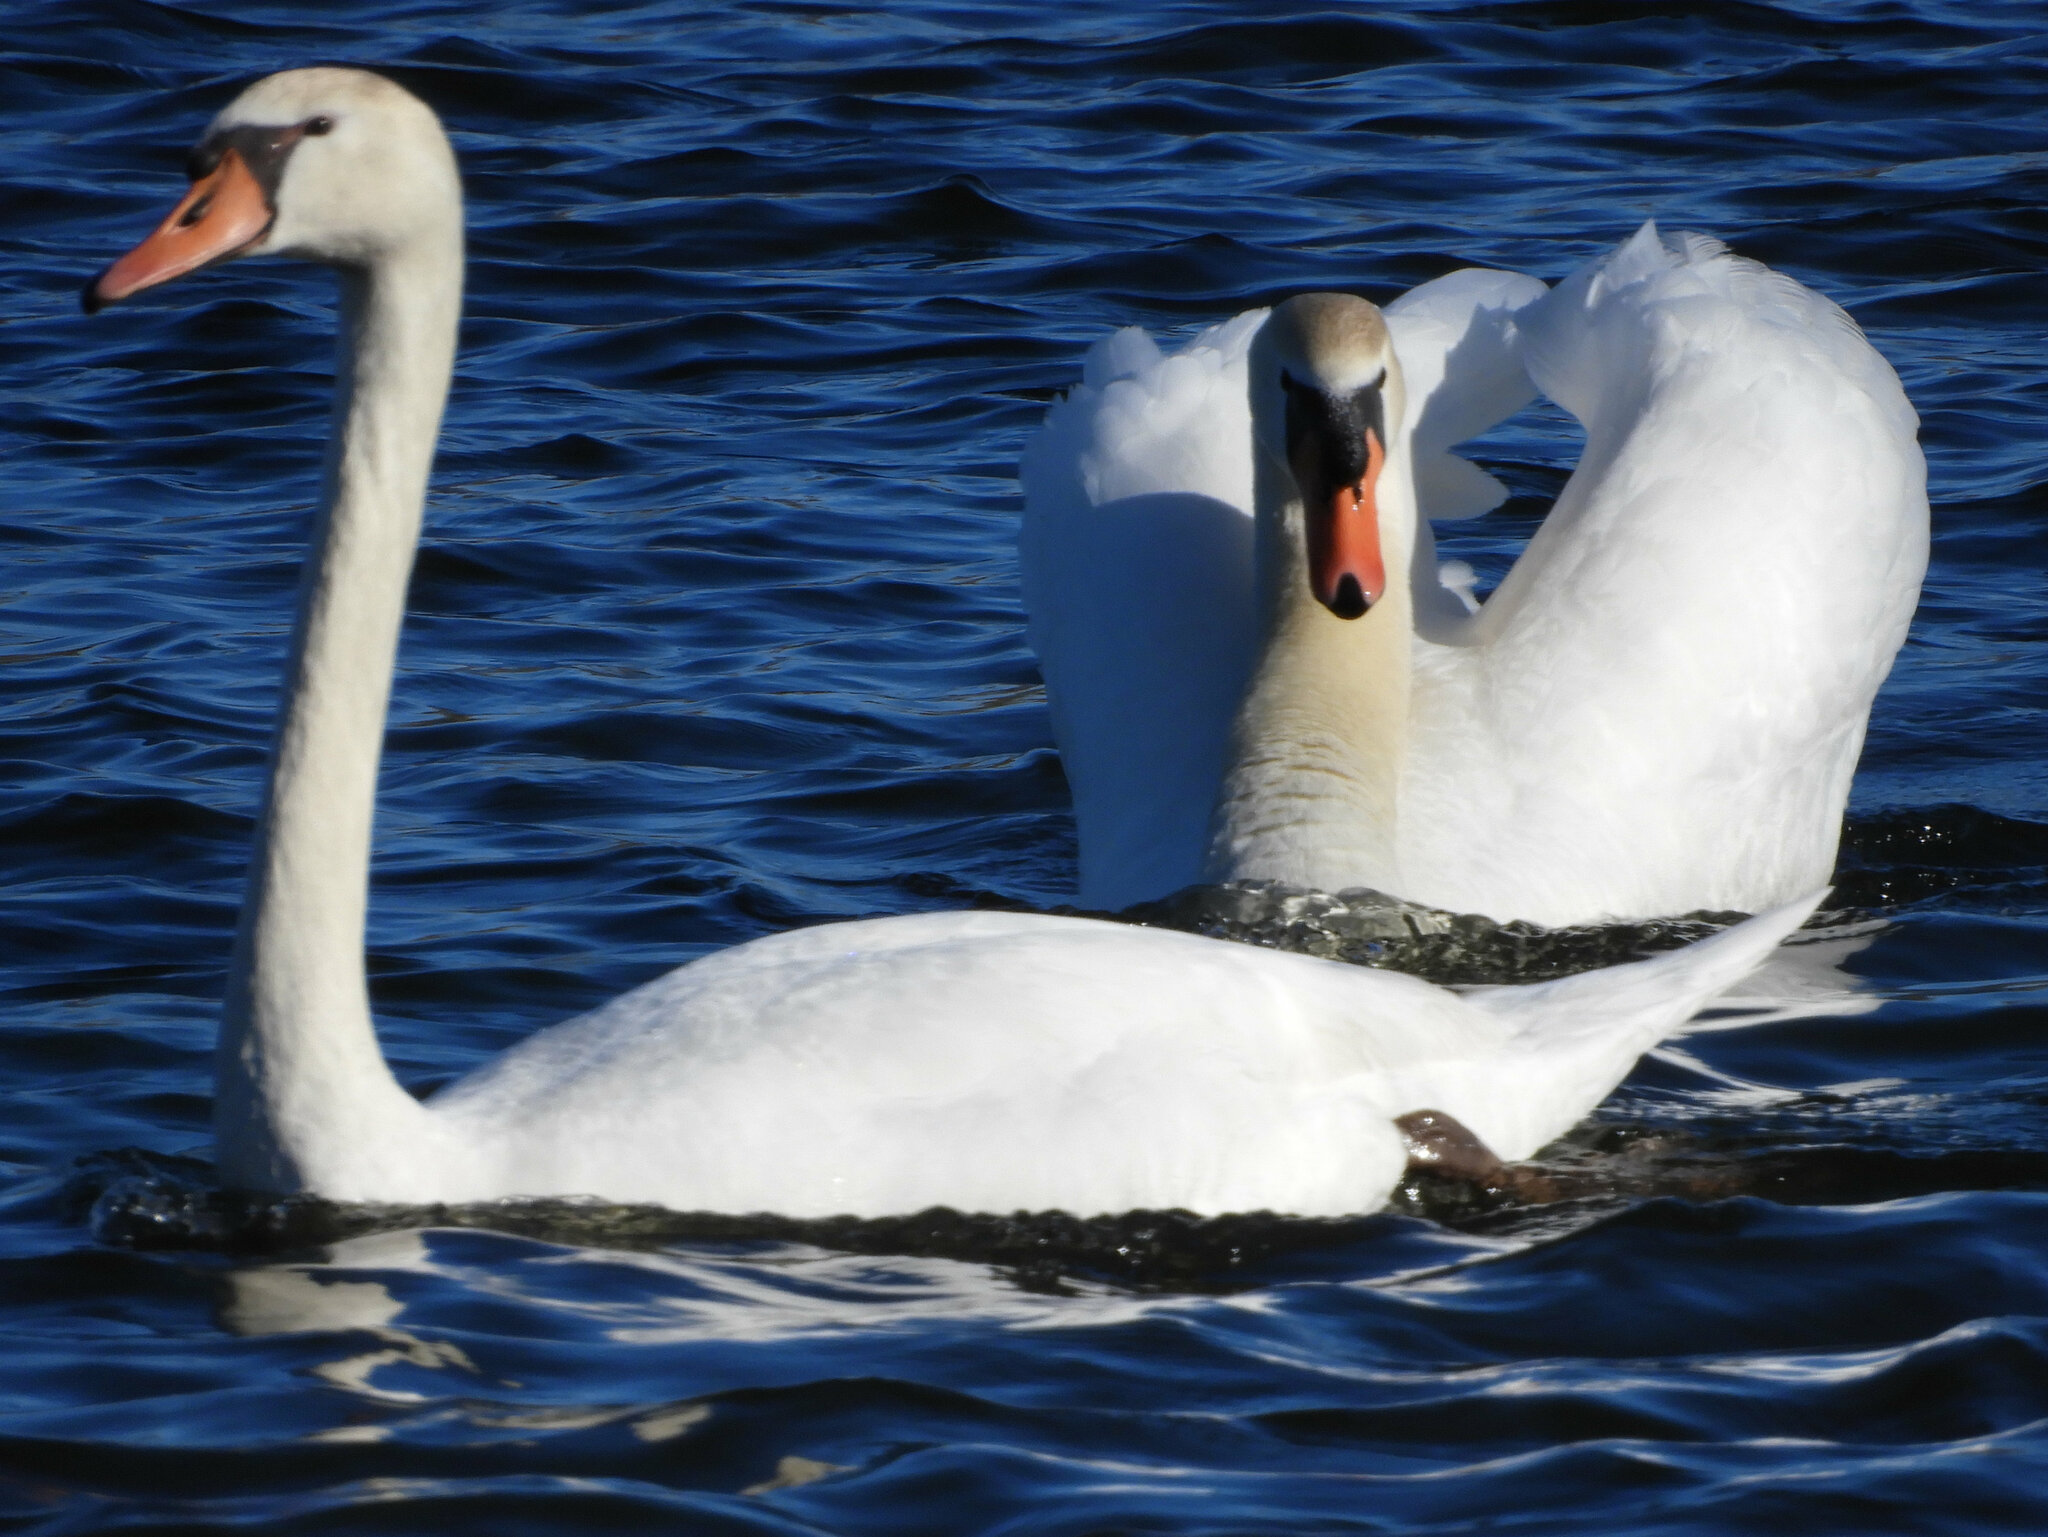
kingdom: Animalia
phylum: Chordata
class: Aves
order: Anseriformes
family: Anatidae
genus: Cygnus
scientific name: Cygnus olor
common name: Mute swan
